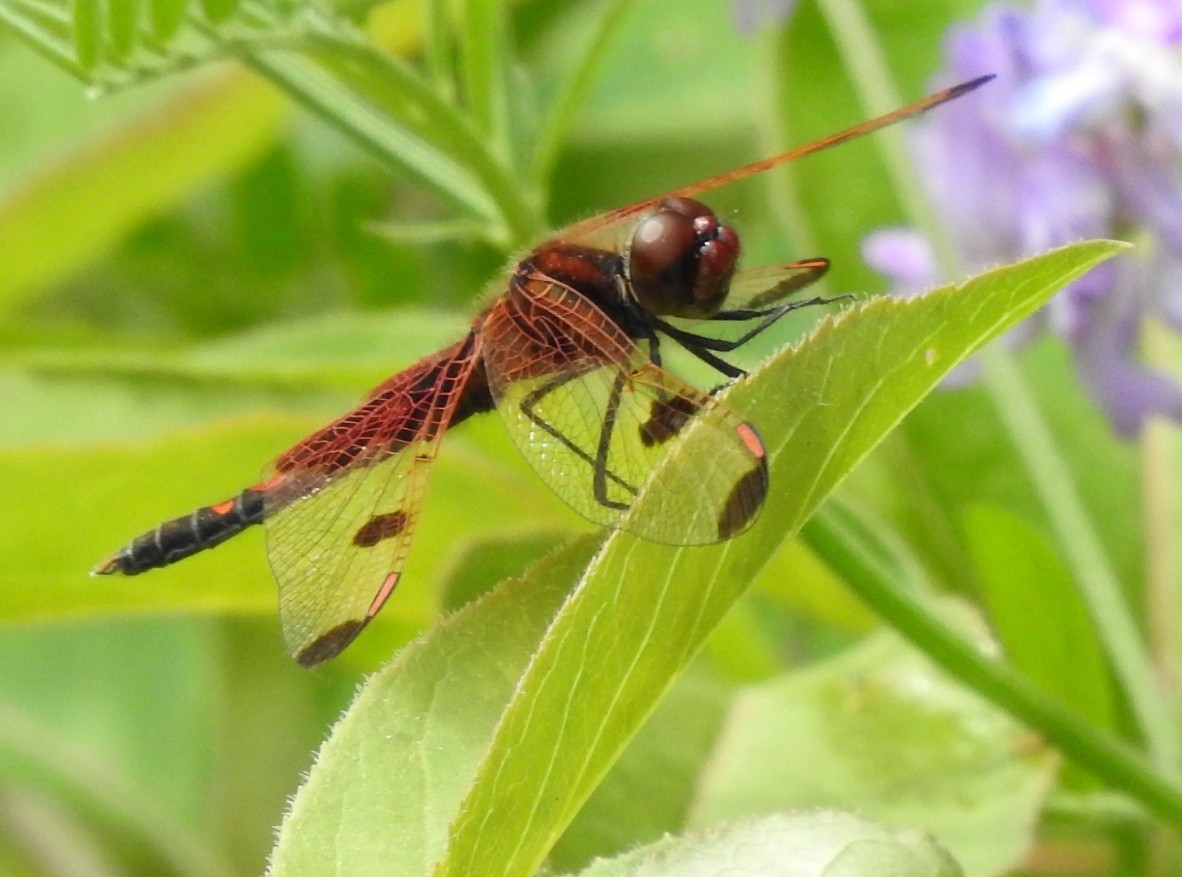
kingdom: Animalia
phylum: Arthropoda
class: Insecta
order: Odonata
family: Libellulidae
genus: Celithemis
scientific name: Celithemis elisa
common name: Calico pennant
